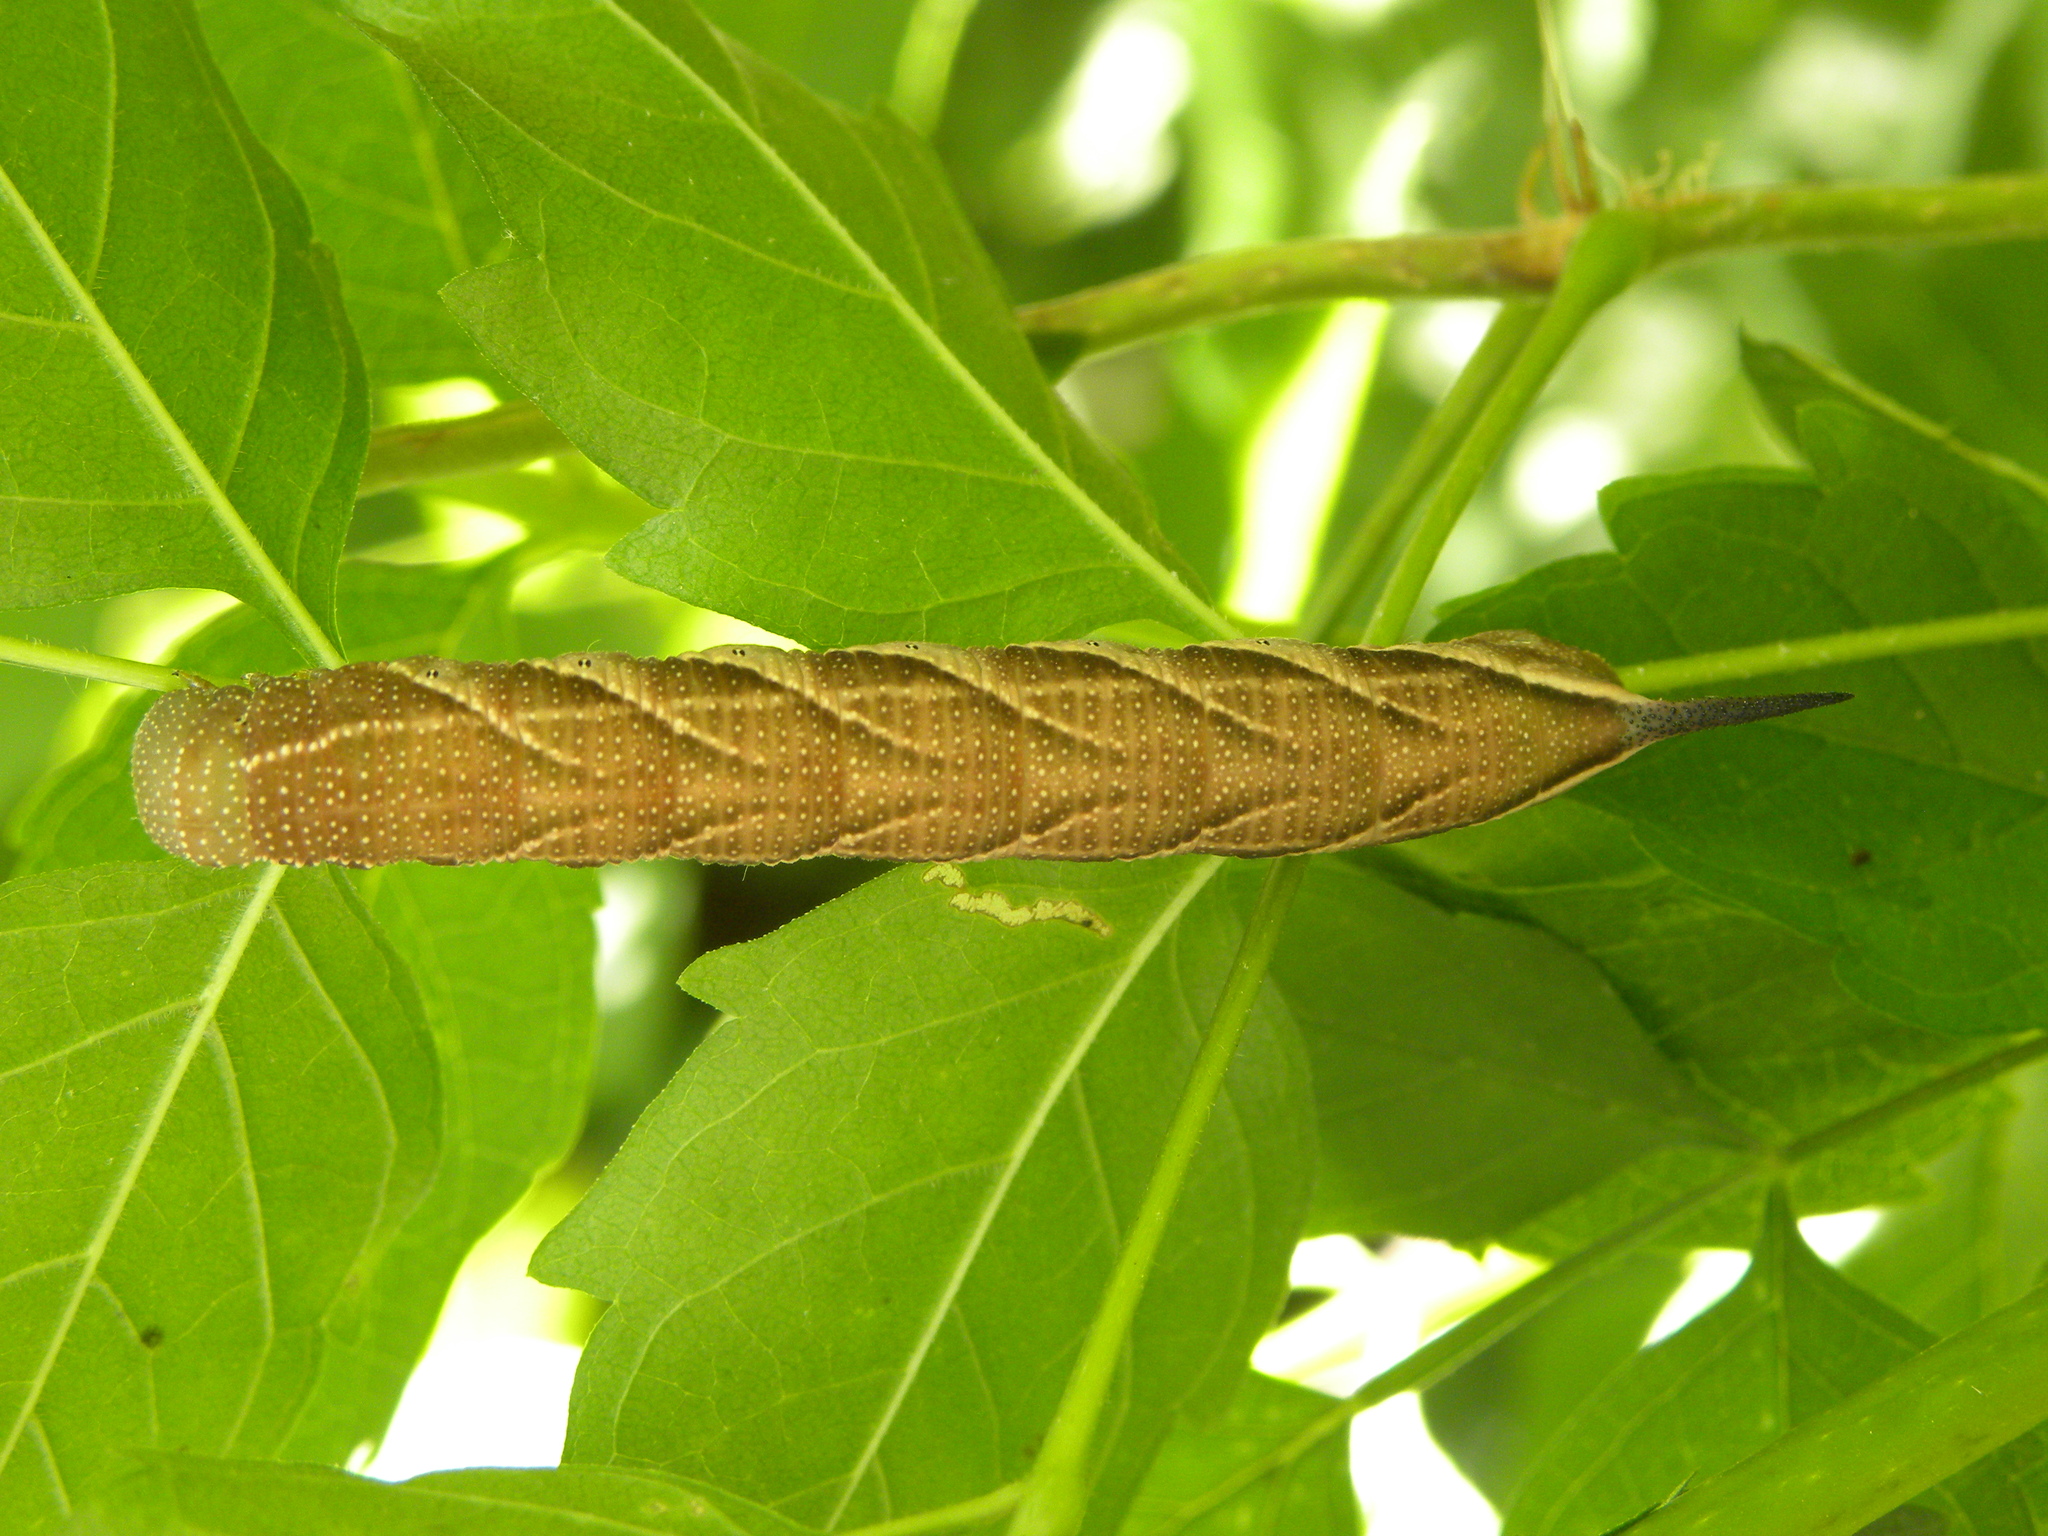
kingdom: Animalia
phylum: Arthropoda
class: Insecta
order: Lepidoptera
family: Sphingidae
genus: Paratrea
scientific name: Paratrea plebeja
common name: Plebian sphinx
